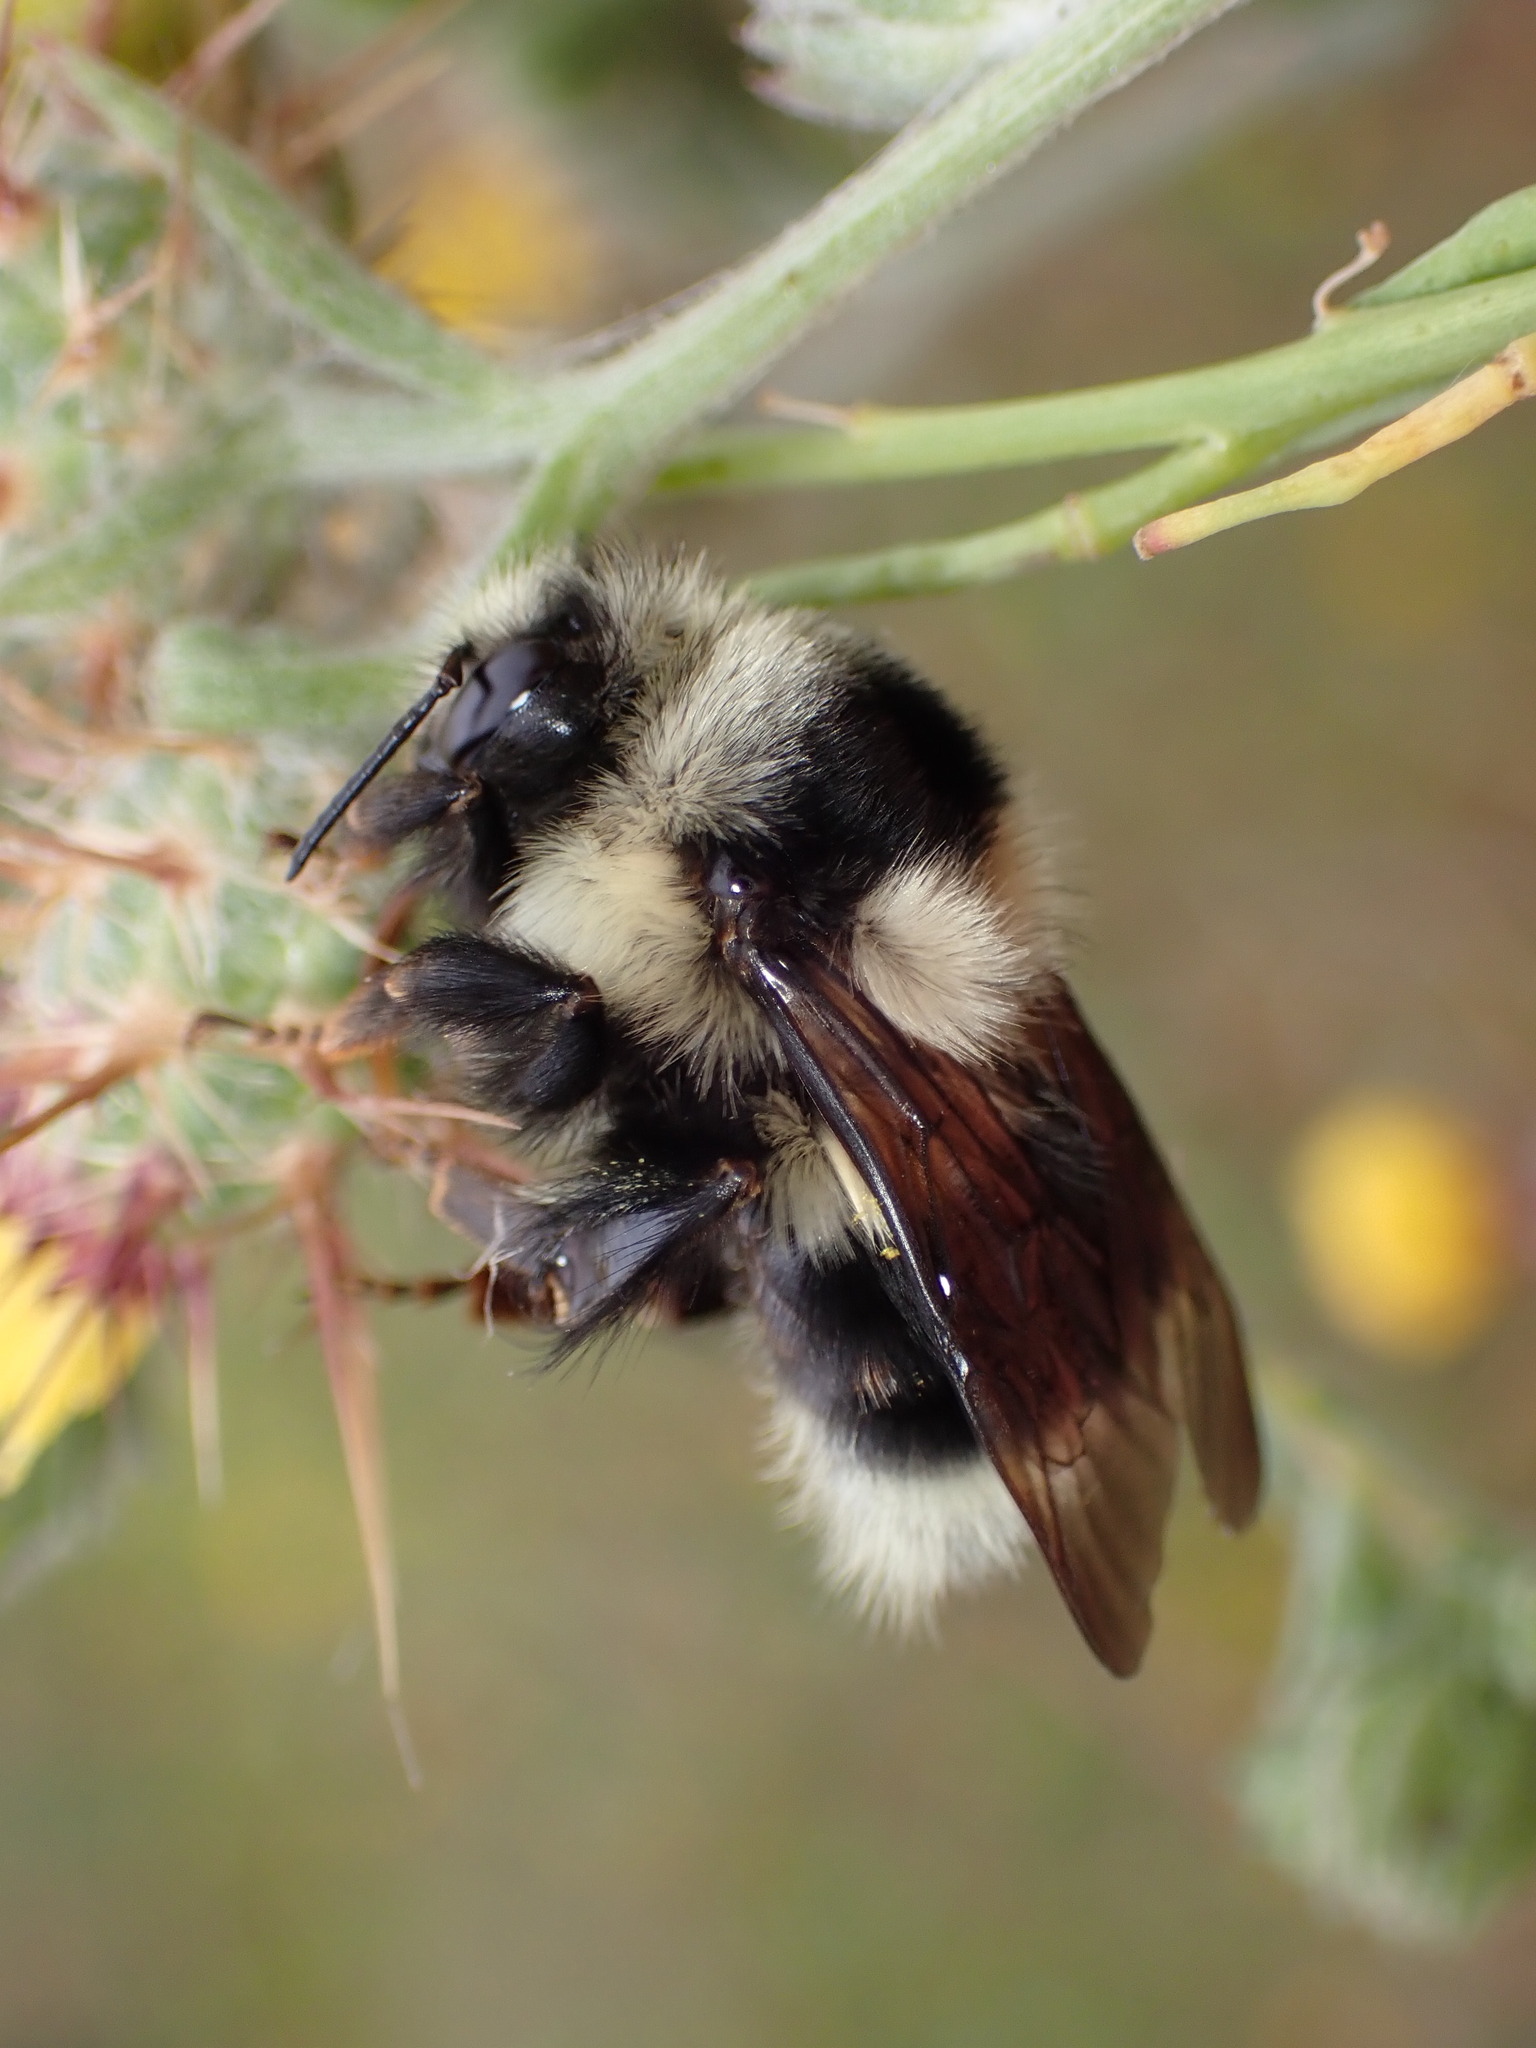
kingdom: Animalia
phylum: Arthropoda
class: Insecta
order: Hymenoptera
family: Apidae
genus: Bombus
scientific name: Bombus melanopygus
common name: Black tail bumble bee
